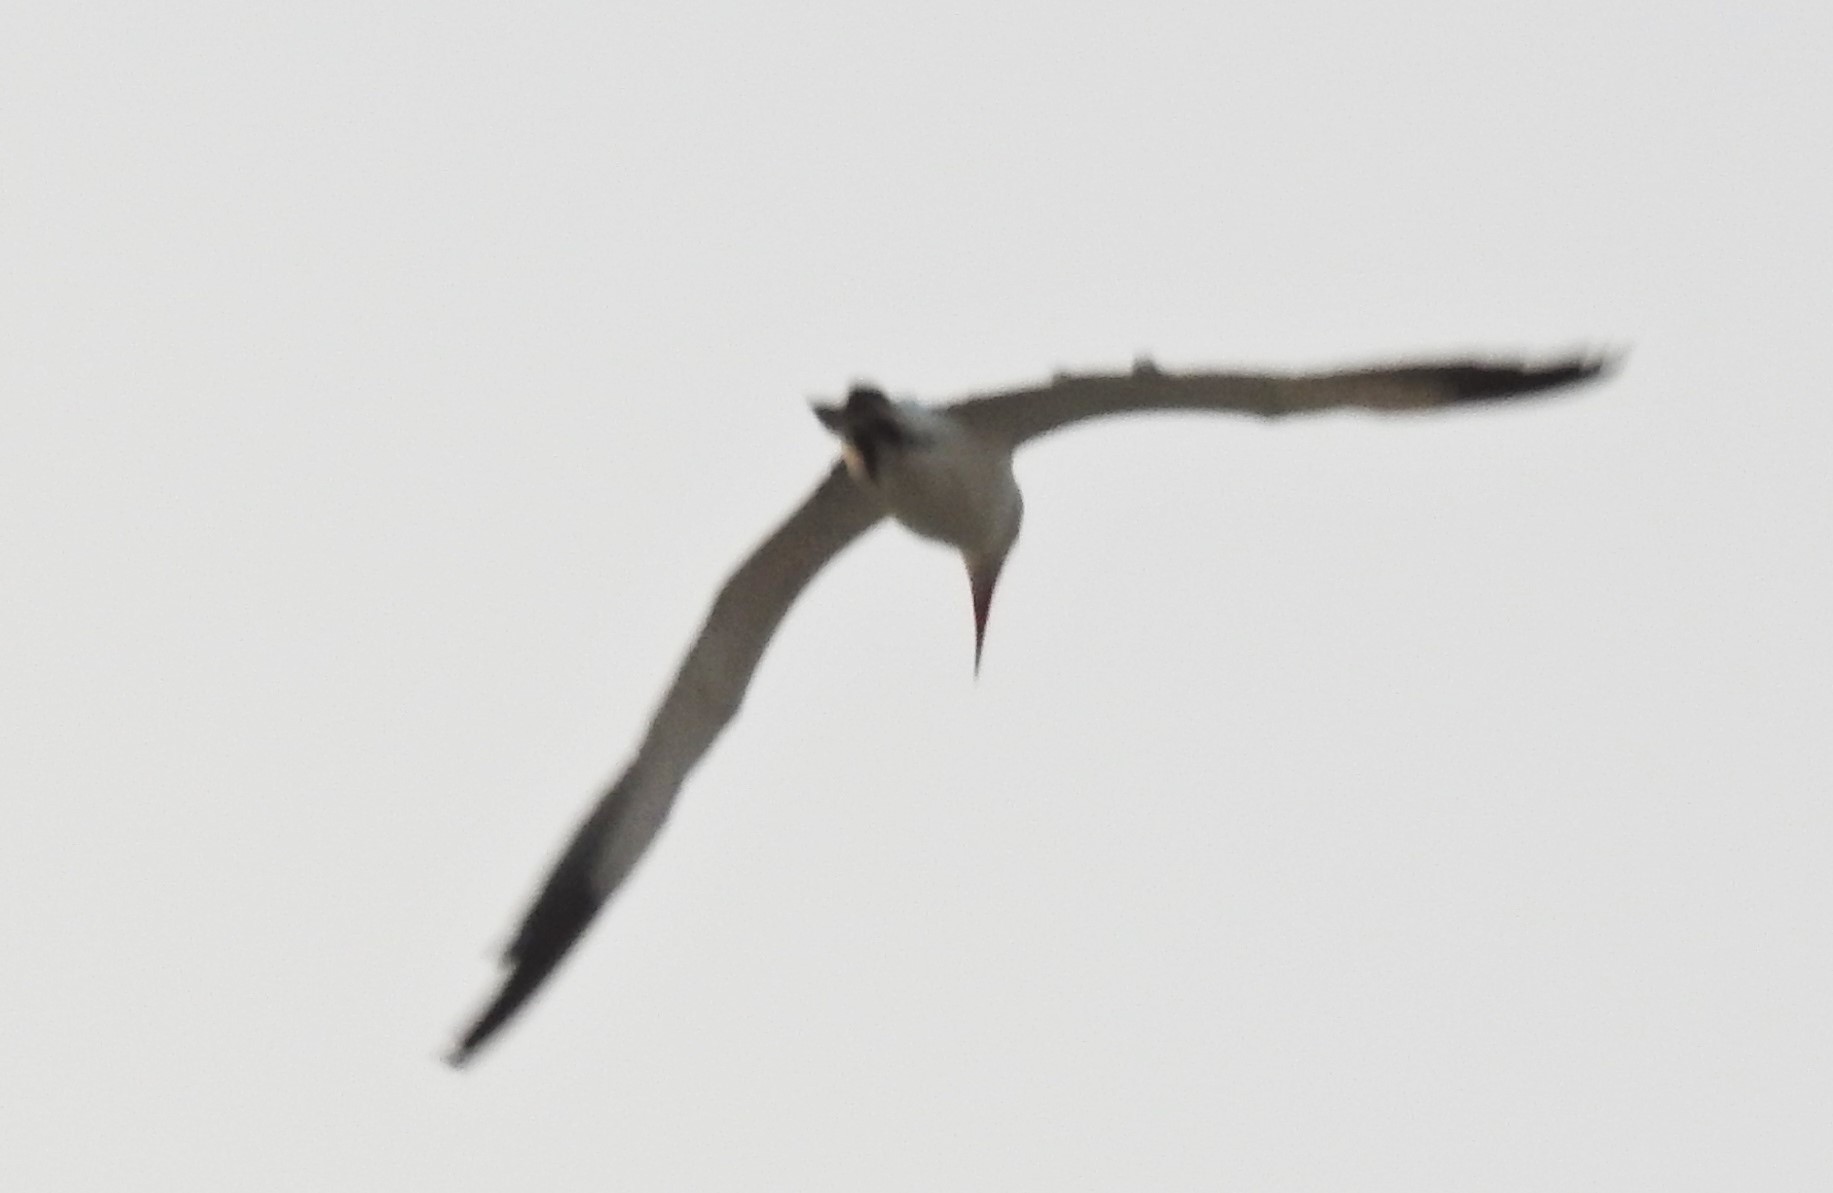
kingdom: Animalia
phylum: Chordata
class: Aves
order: Charadriiformes
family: Laridae
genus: Thalasseus
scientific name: Thalasseus albididorsalis
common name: West african crested tern
